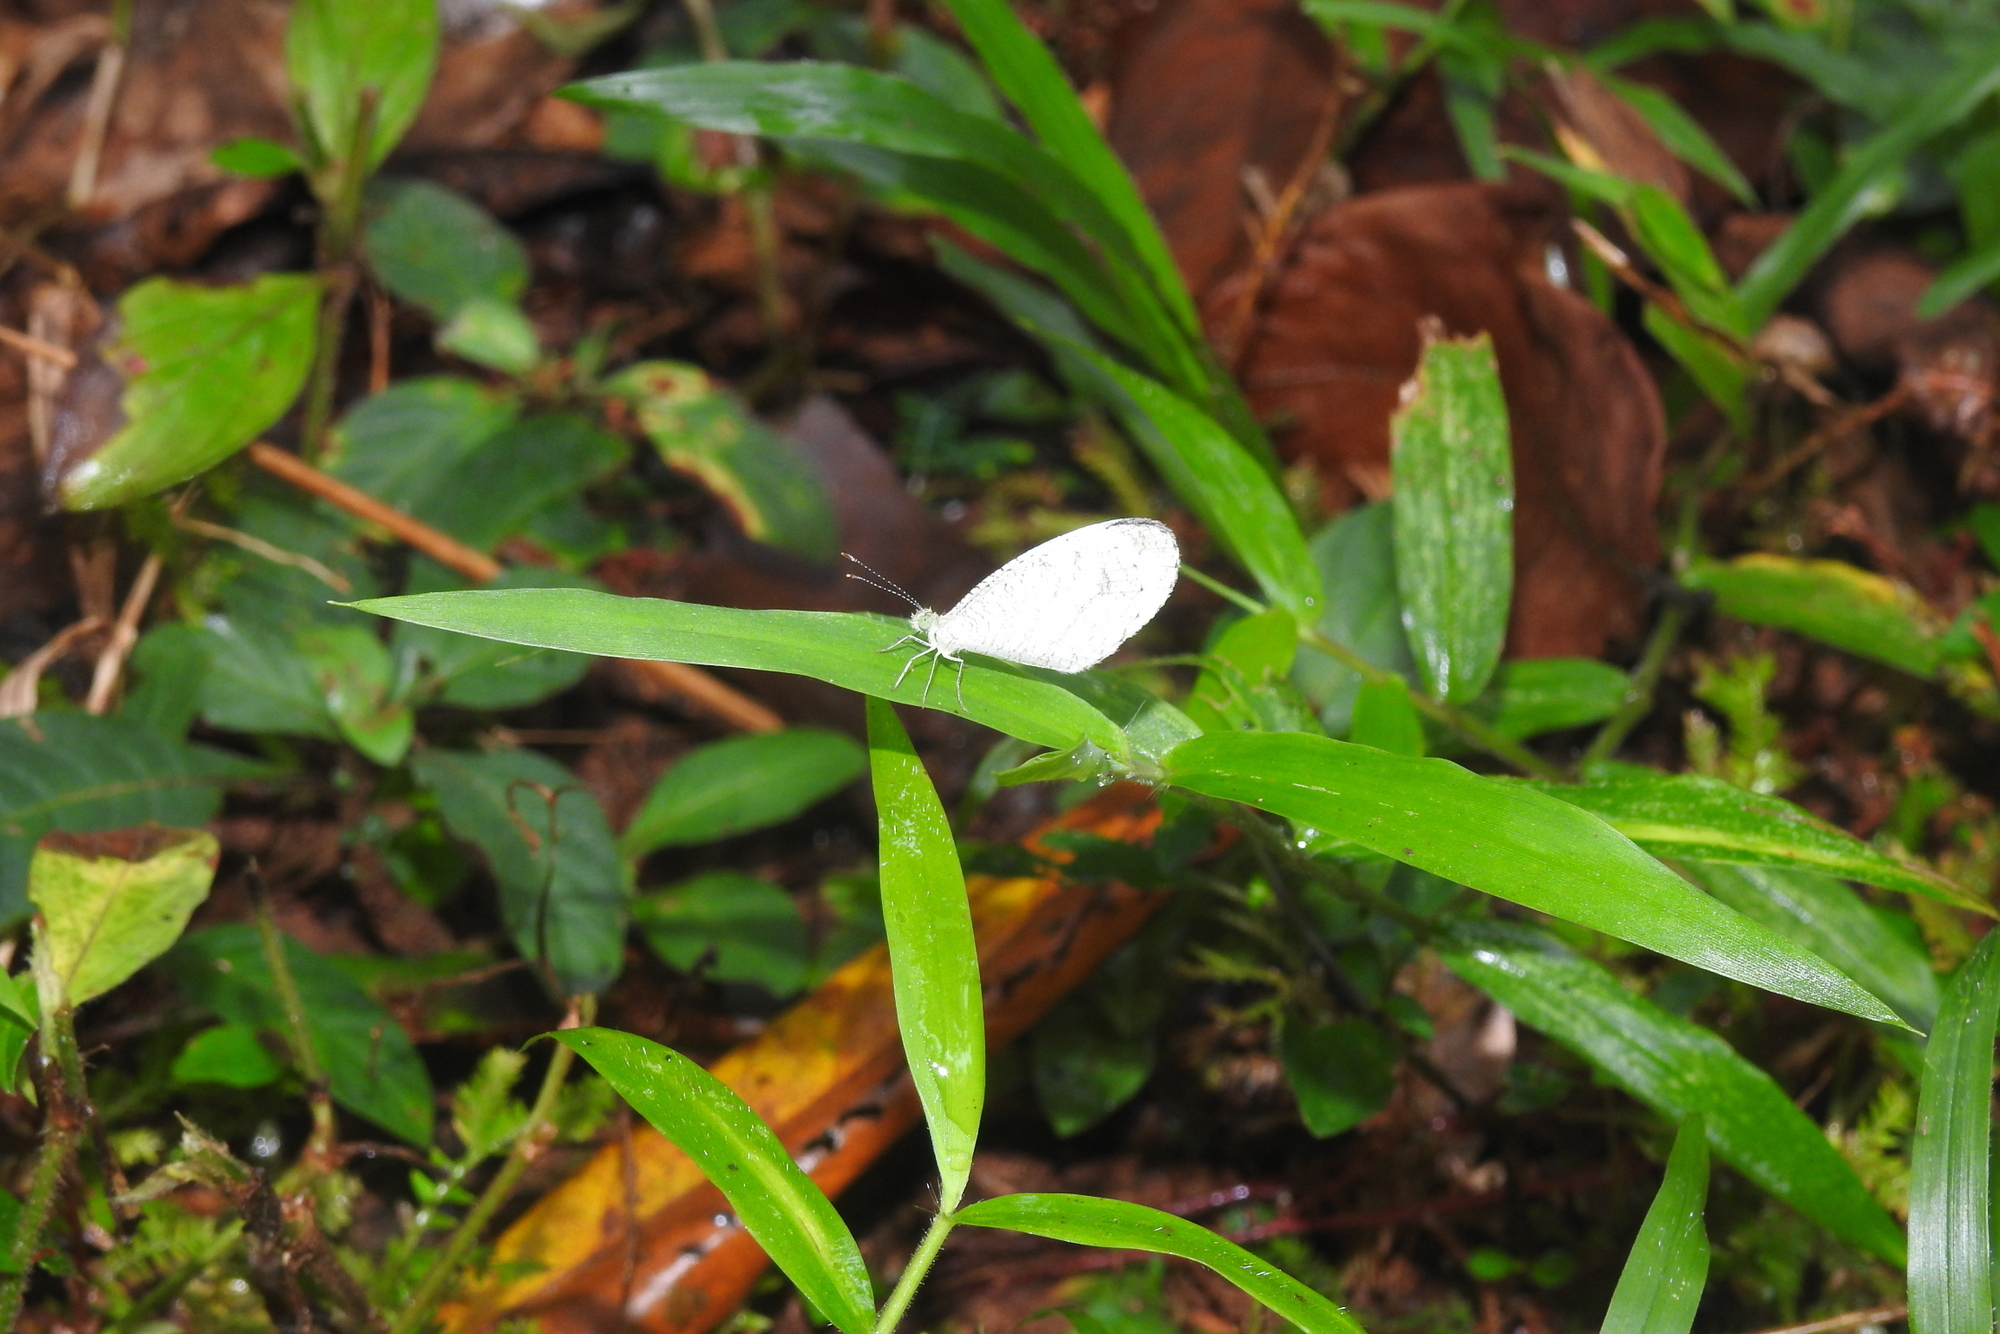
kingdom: Animalia
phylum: Arthropoda
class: Insecta
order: Lepidoptera
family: Pieridae
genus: Leptosia
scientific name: Leptosia nina
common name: Psyche
